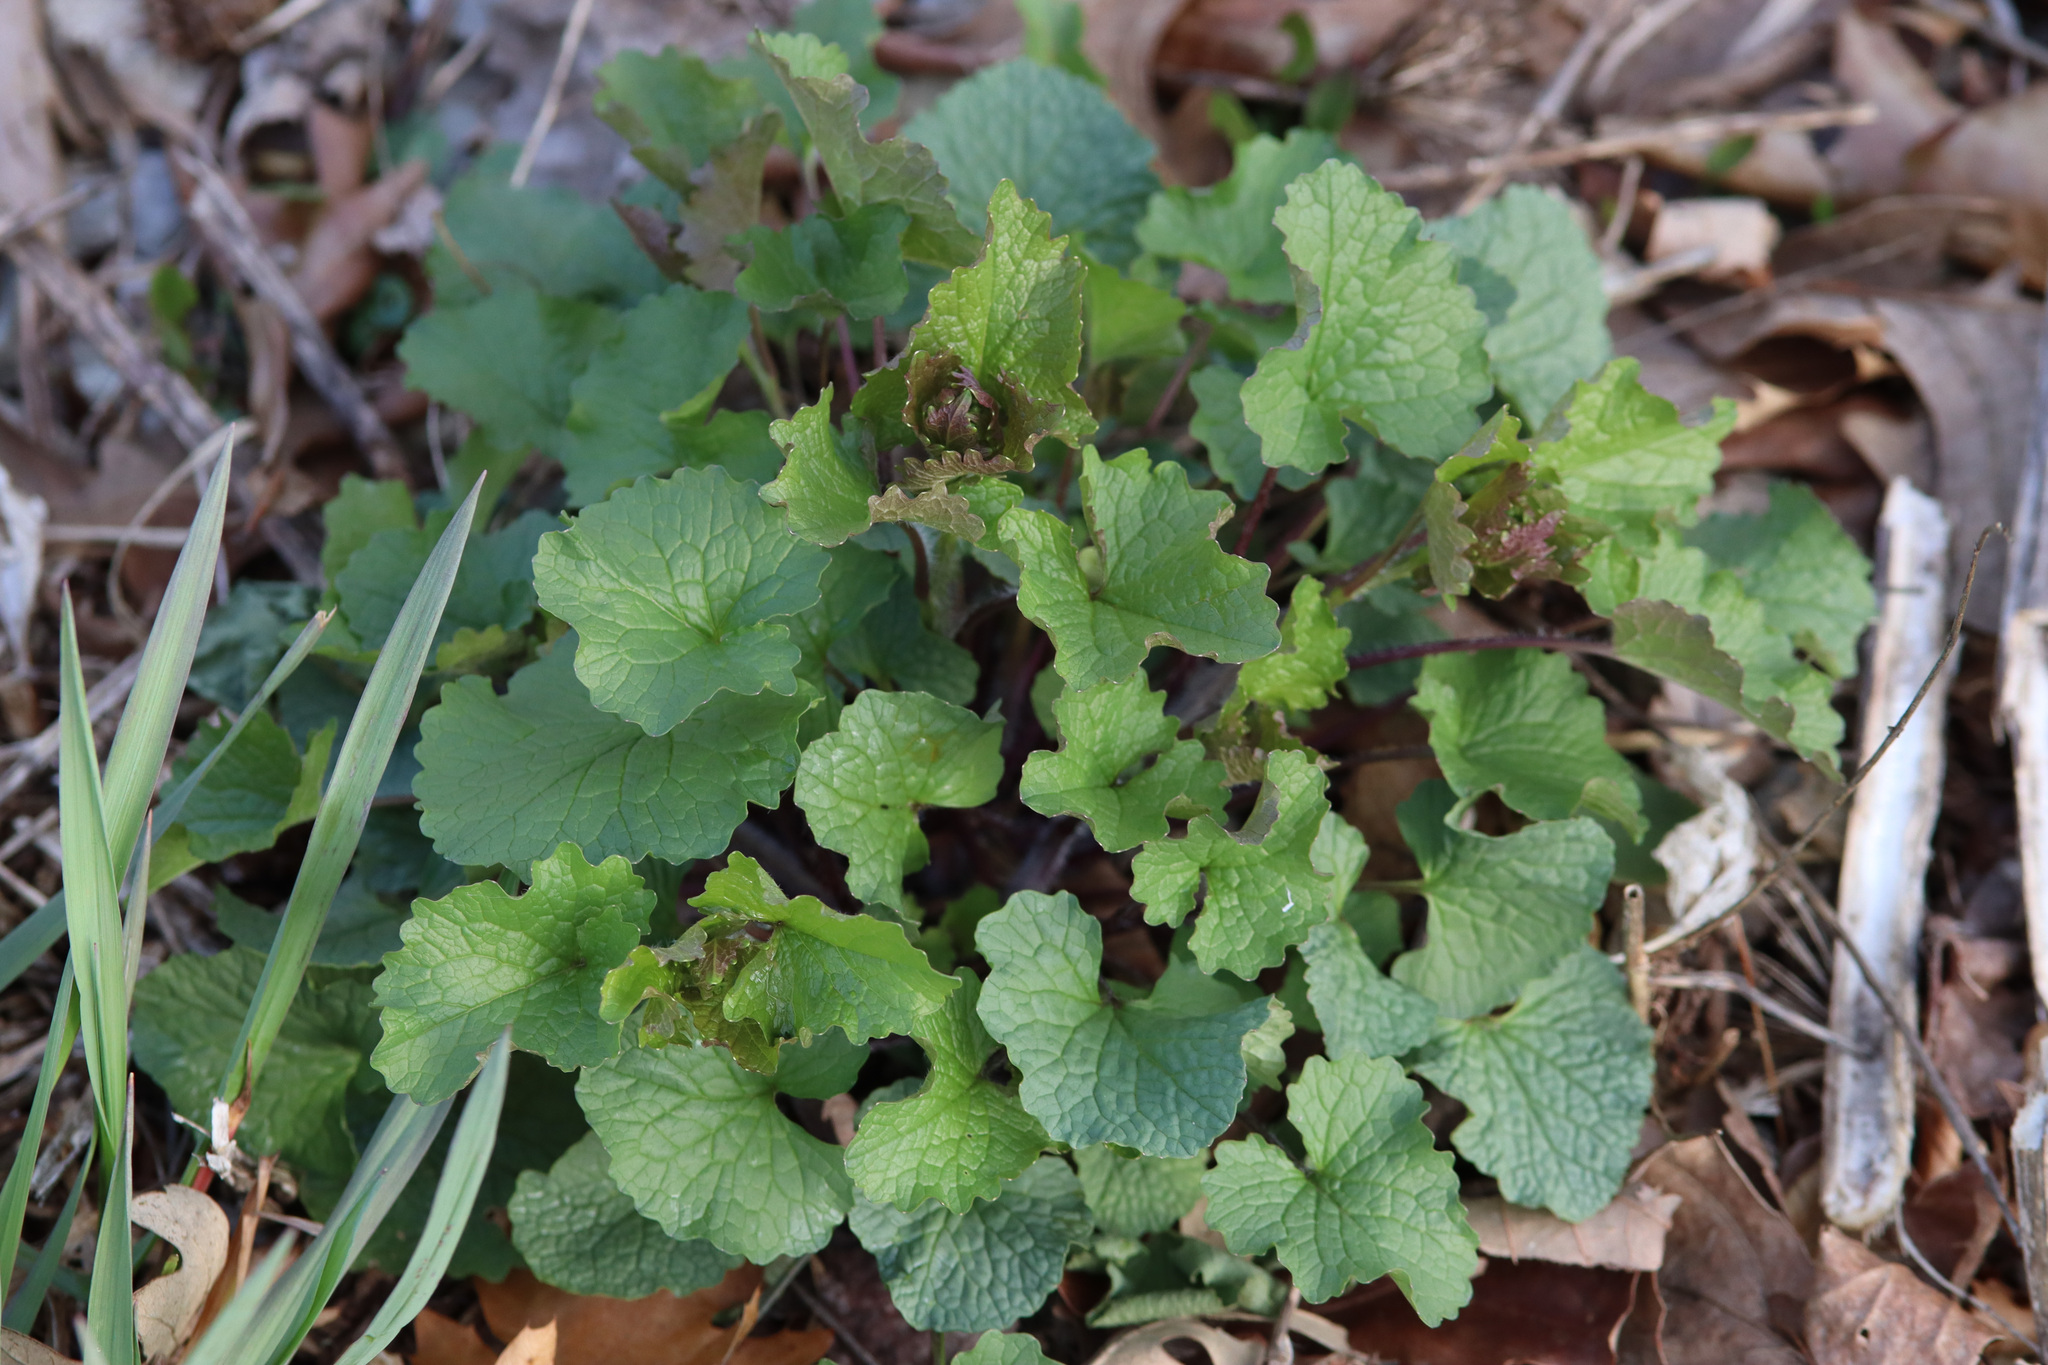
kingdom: Plantae
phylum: Tracheophyta
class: Magnoliopsida
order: Brassicales
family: Brassicaceae
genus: Alliaria
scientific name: Alliaria petiolata
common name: Garlic mustard
